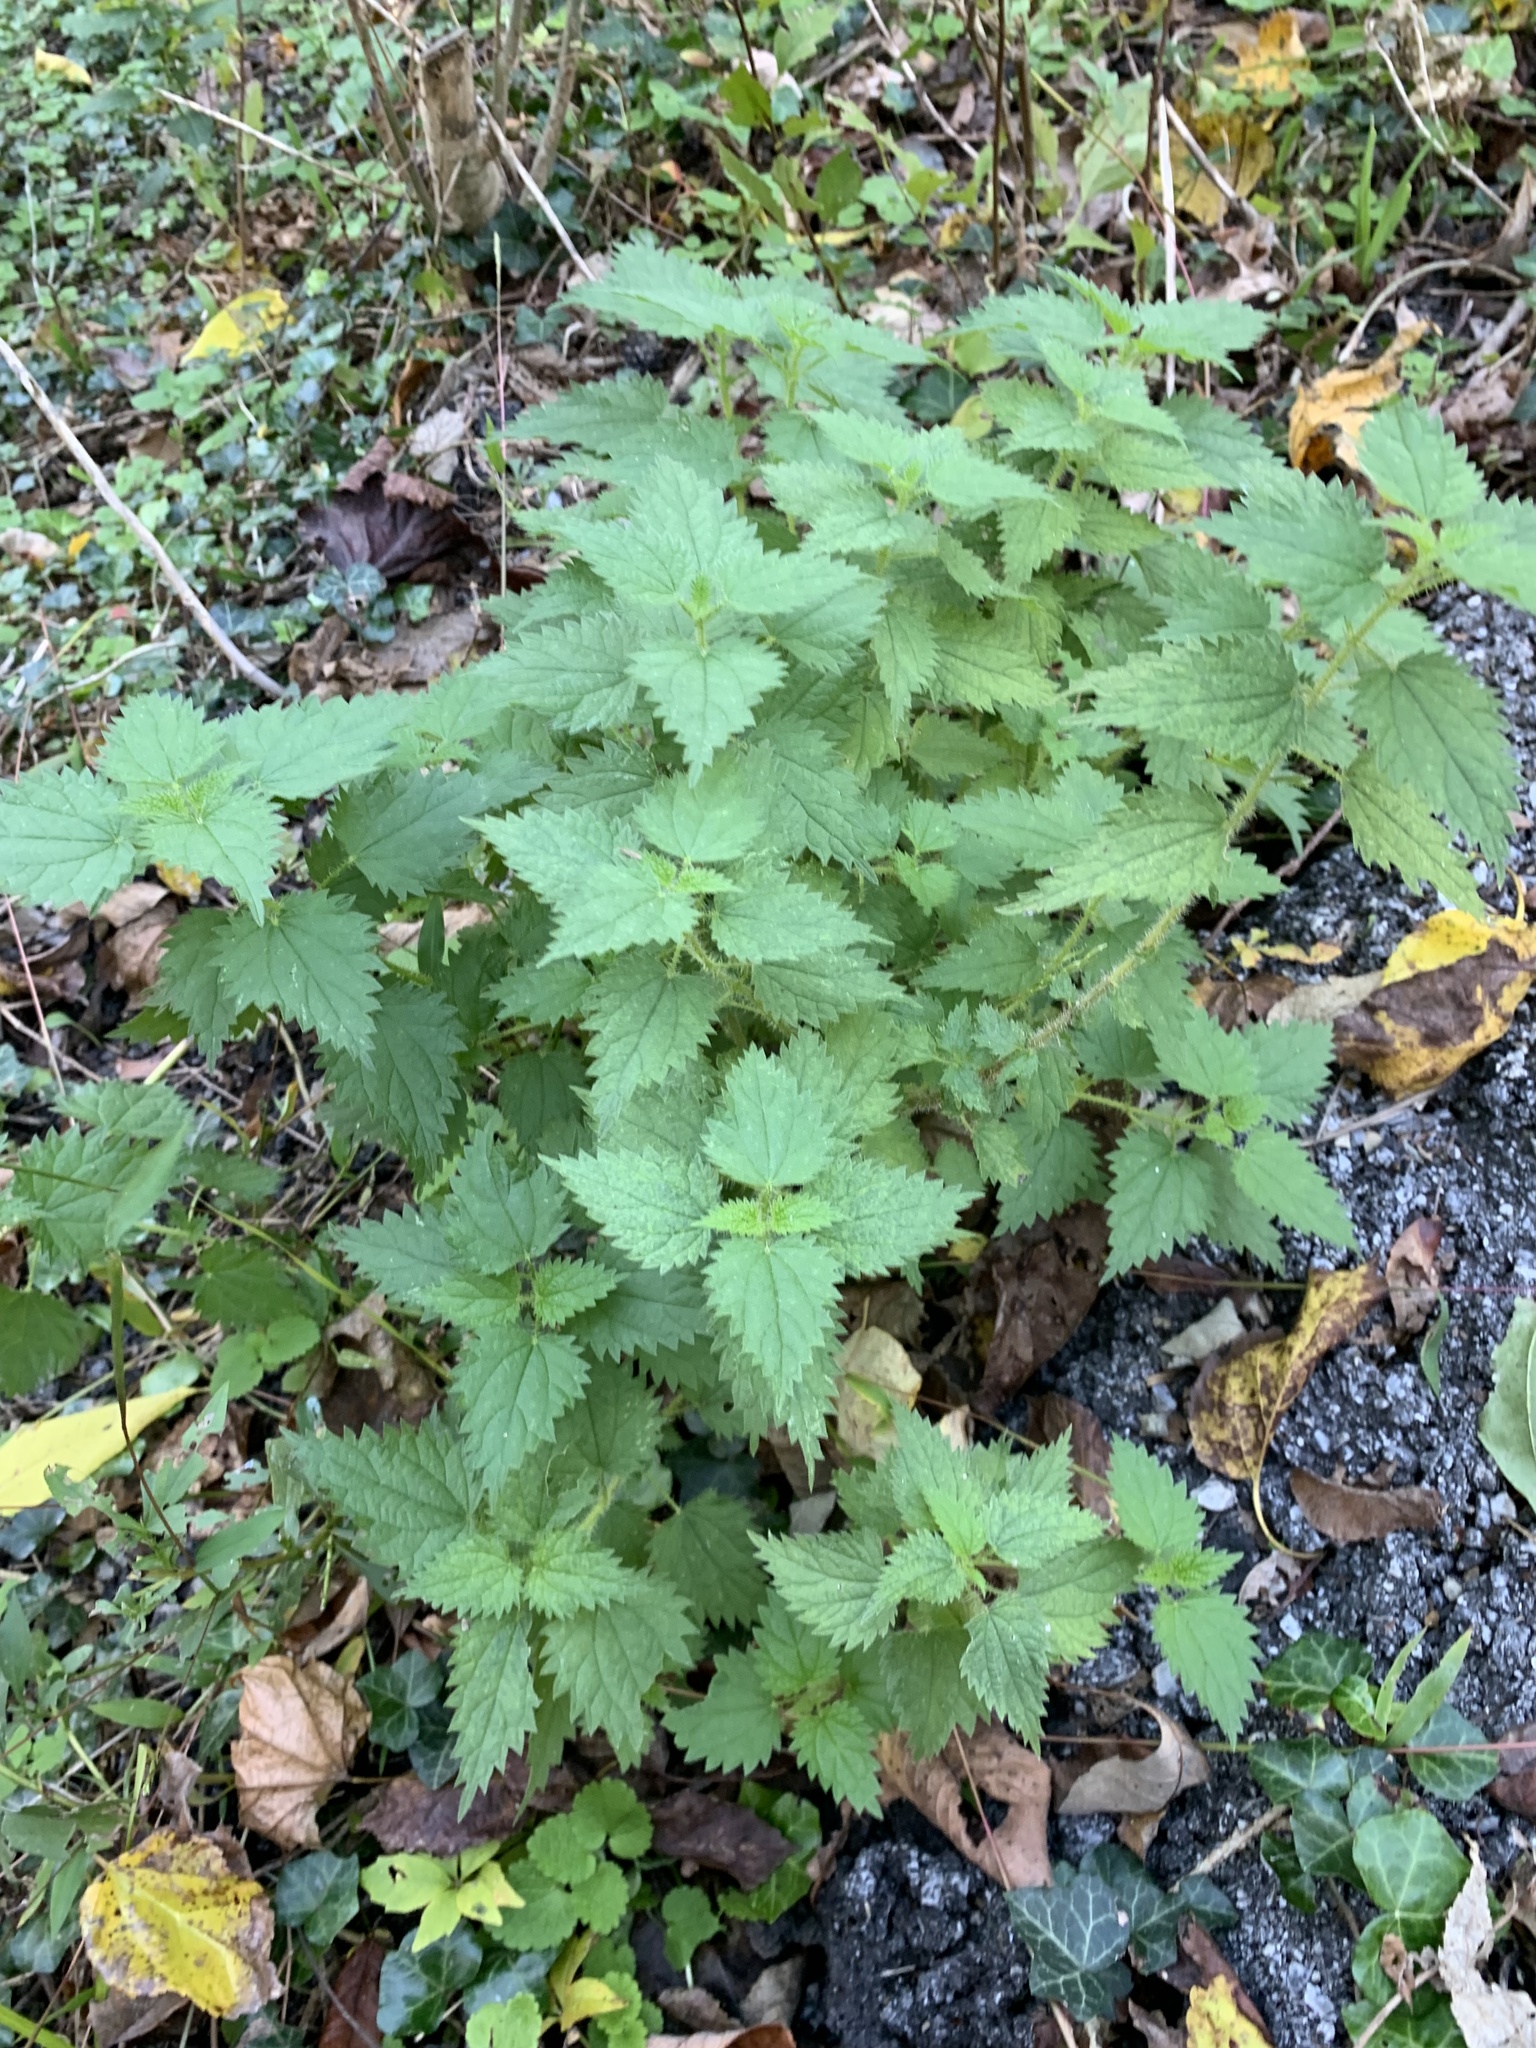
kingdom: Plantae
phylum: Tracheophyta
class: Magnoliopsida
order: Rosales
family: Urticaceae
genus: Urtica
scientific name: Urtica dioica
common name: Common nettle
